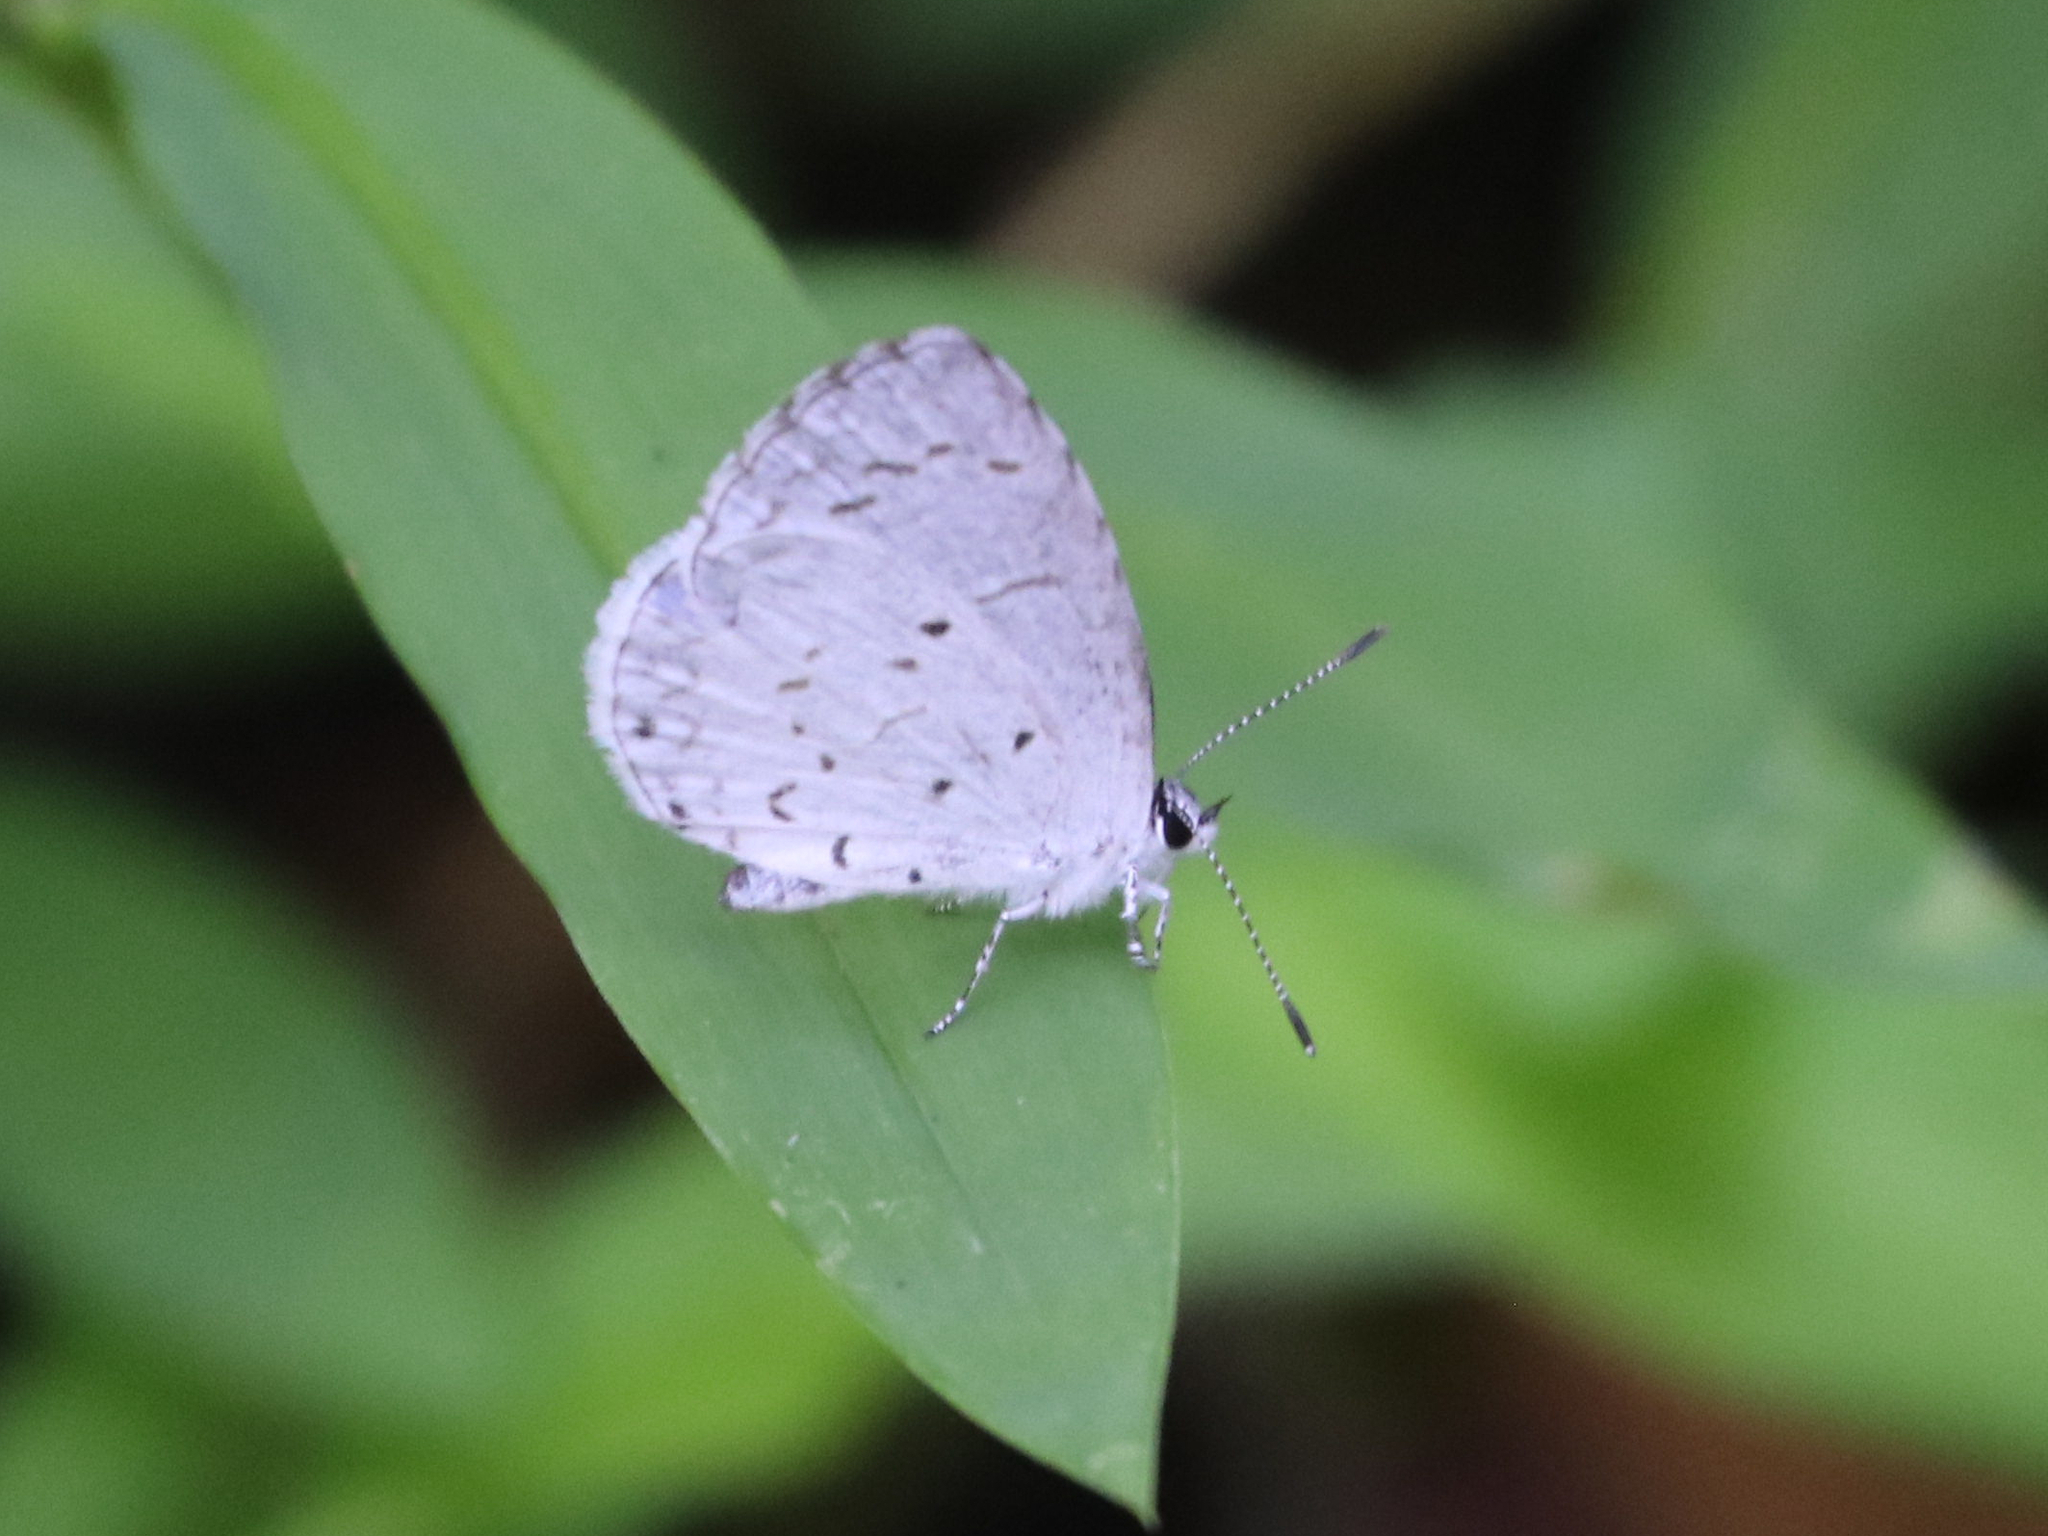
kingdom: Animalia
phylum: Arthropoda
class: Insecta
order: Lepidoptera
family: Lycaenidae
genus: Cyaniris
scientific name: Cyaniris neglecta
